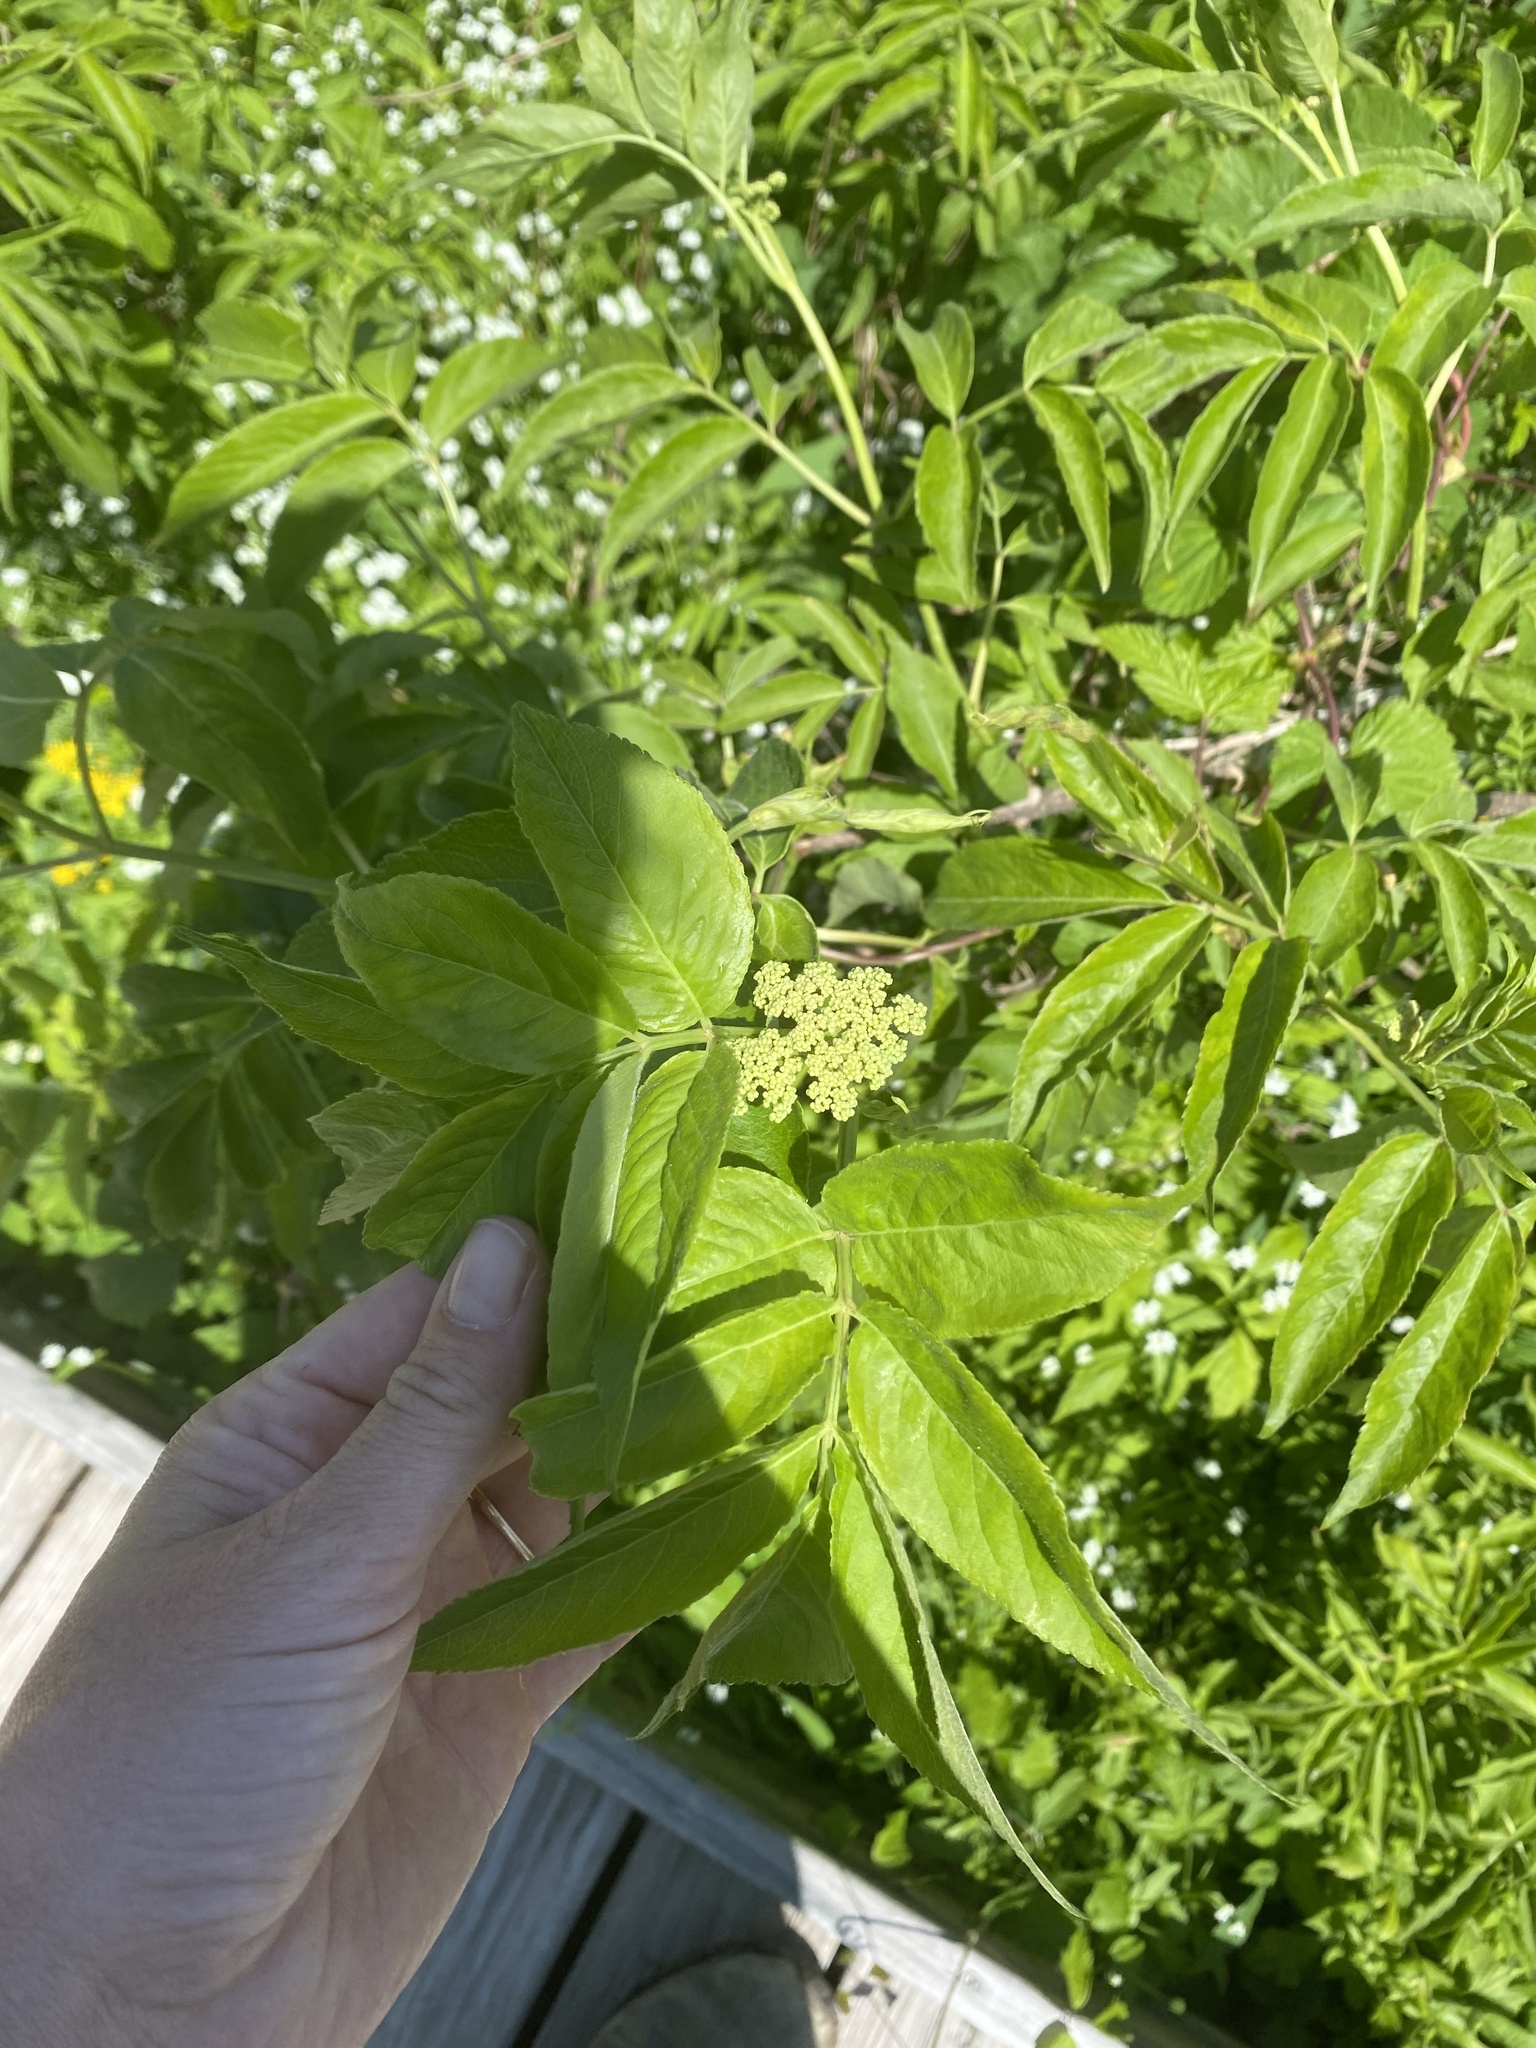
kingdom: Plantae
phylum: Tracheophyta
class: Magnoliopsida
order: Dipsacales
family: Viburnaceae
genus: Sambucus
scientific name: Sambucus canadensis
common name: American elder
